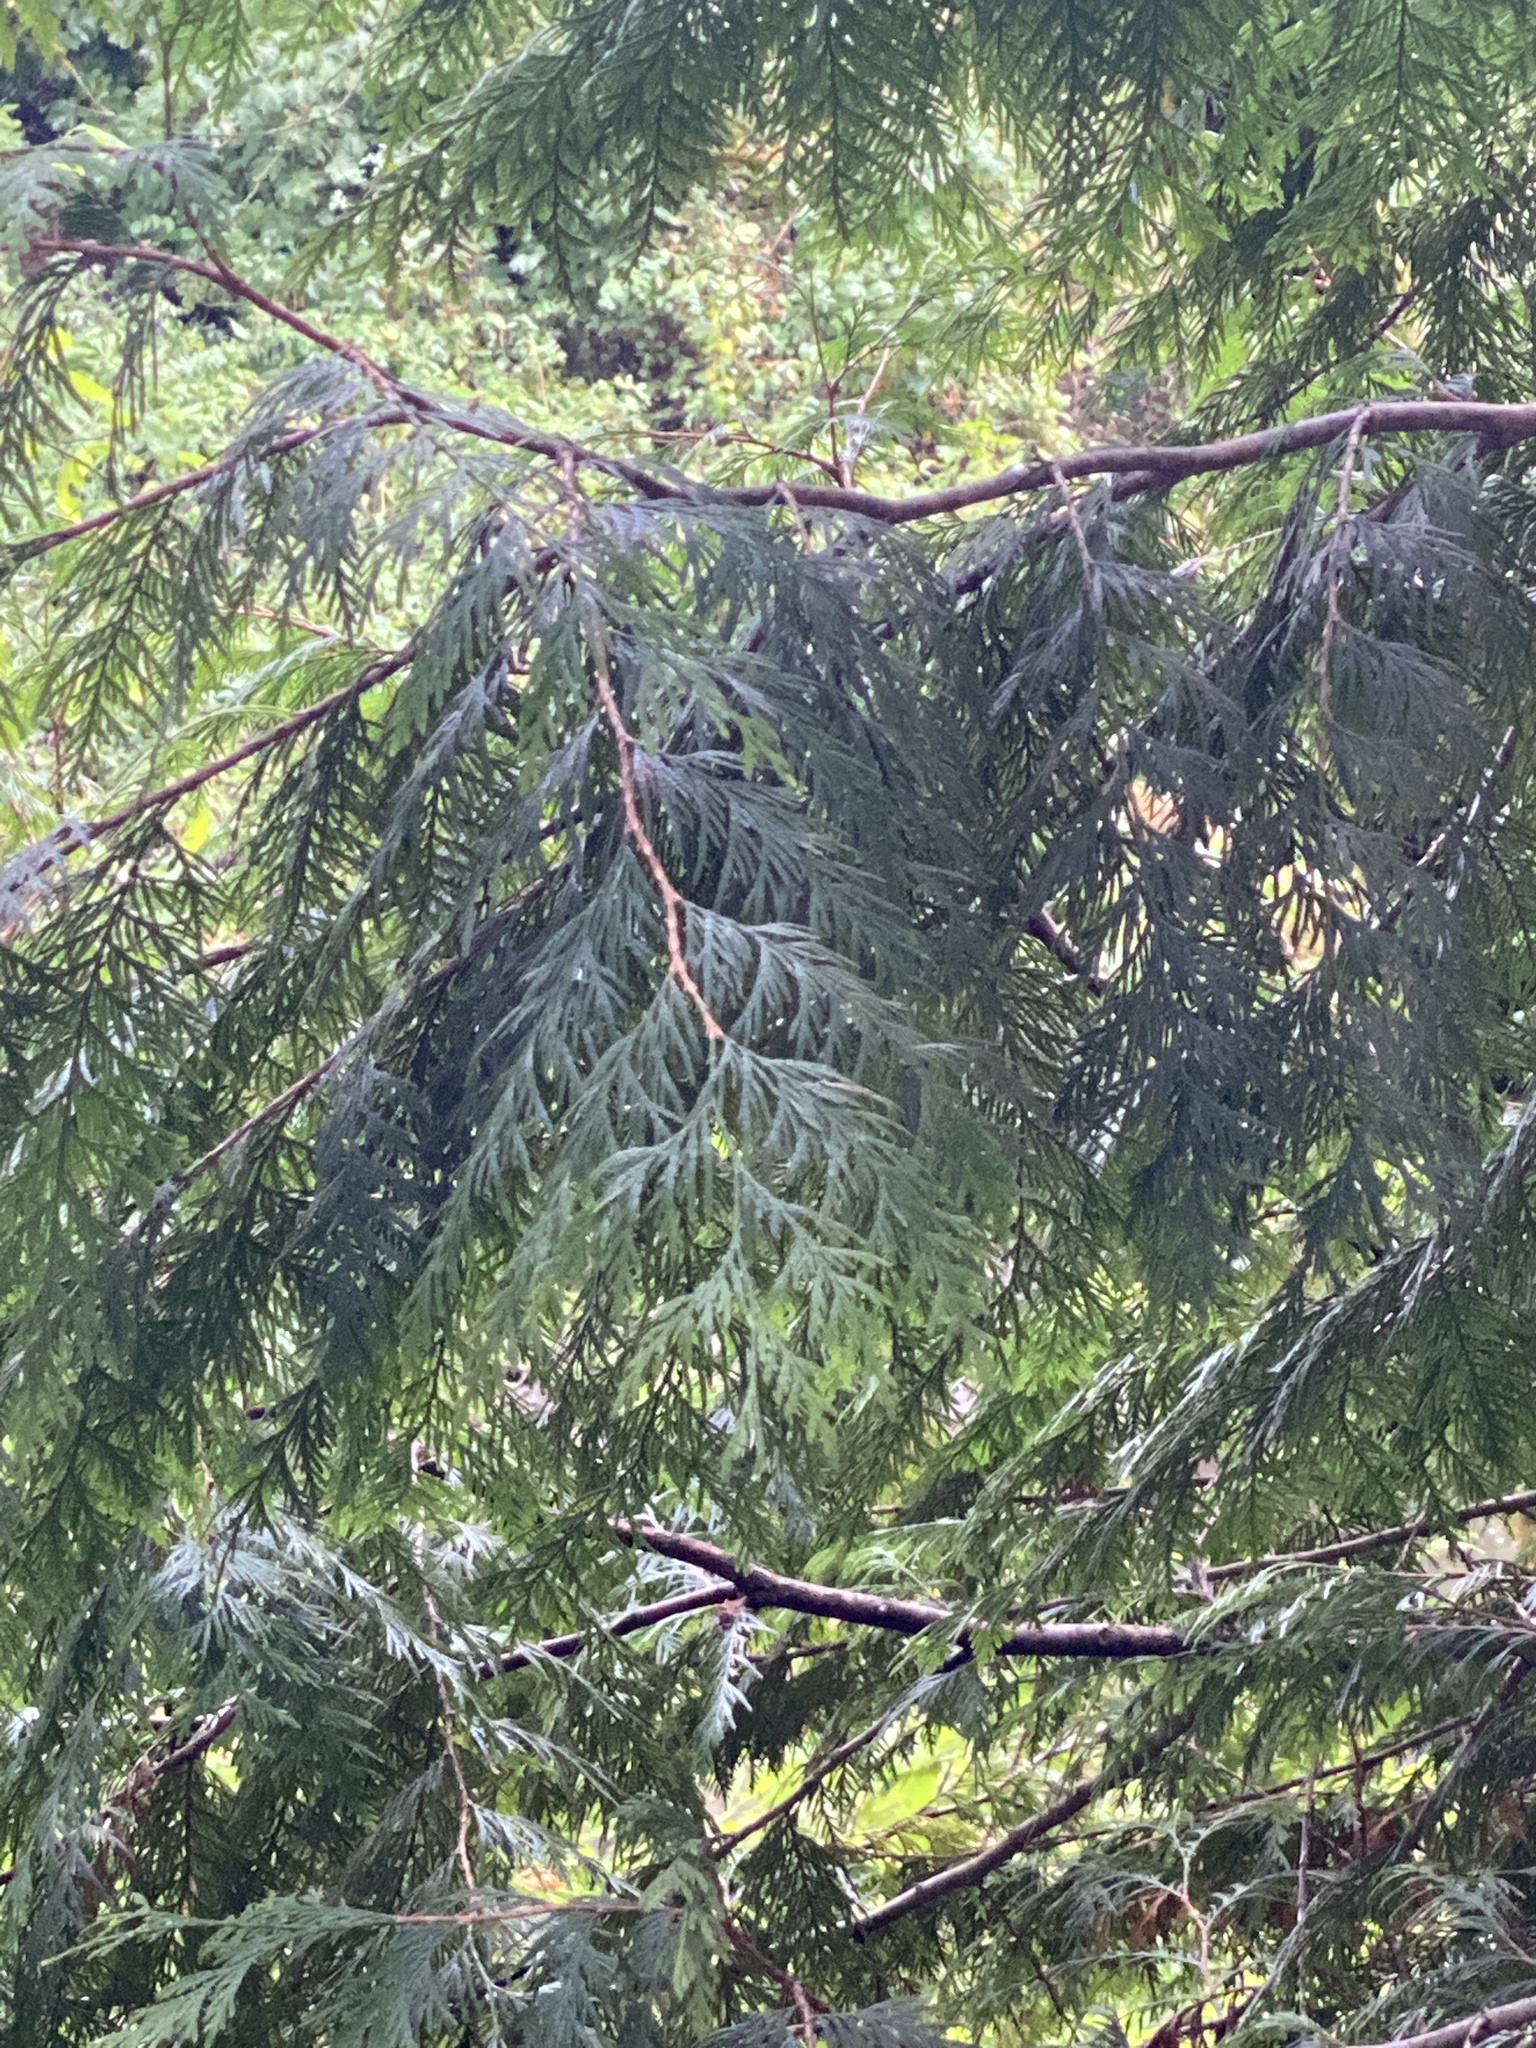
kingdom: Plantae
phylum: Tracheophyta
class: Pinopsida
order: Pinales
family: Cupressaceae
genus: Thuja
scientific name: Thuja plicata
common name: Western red-cedar
